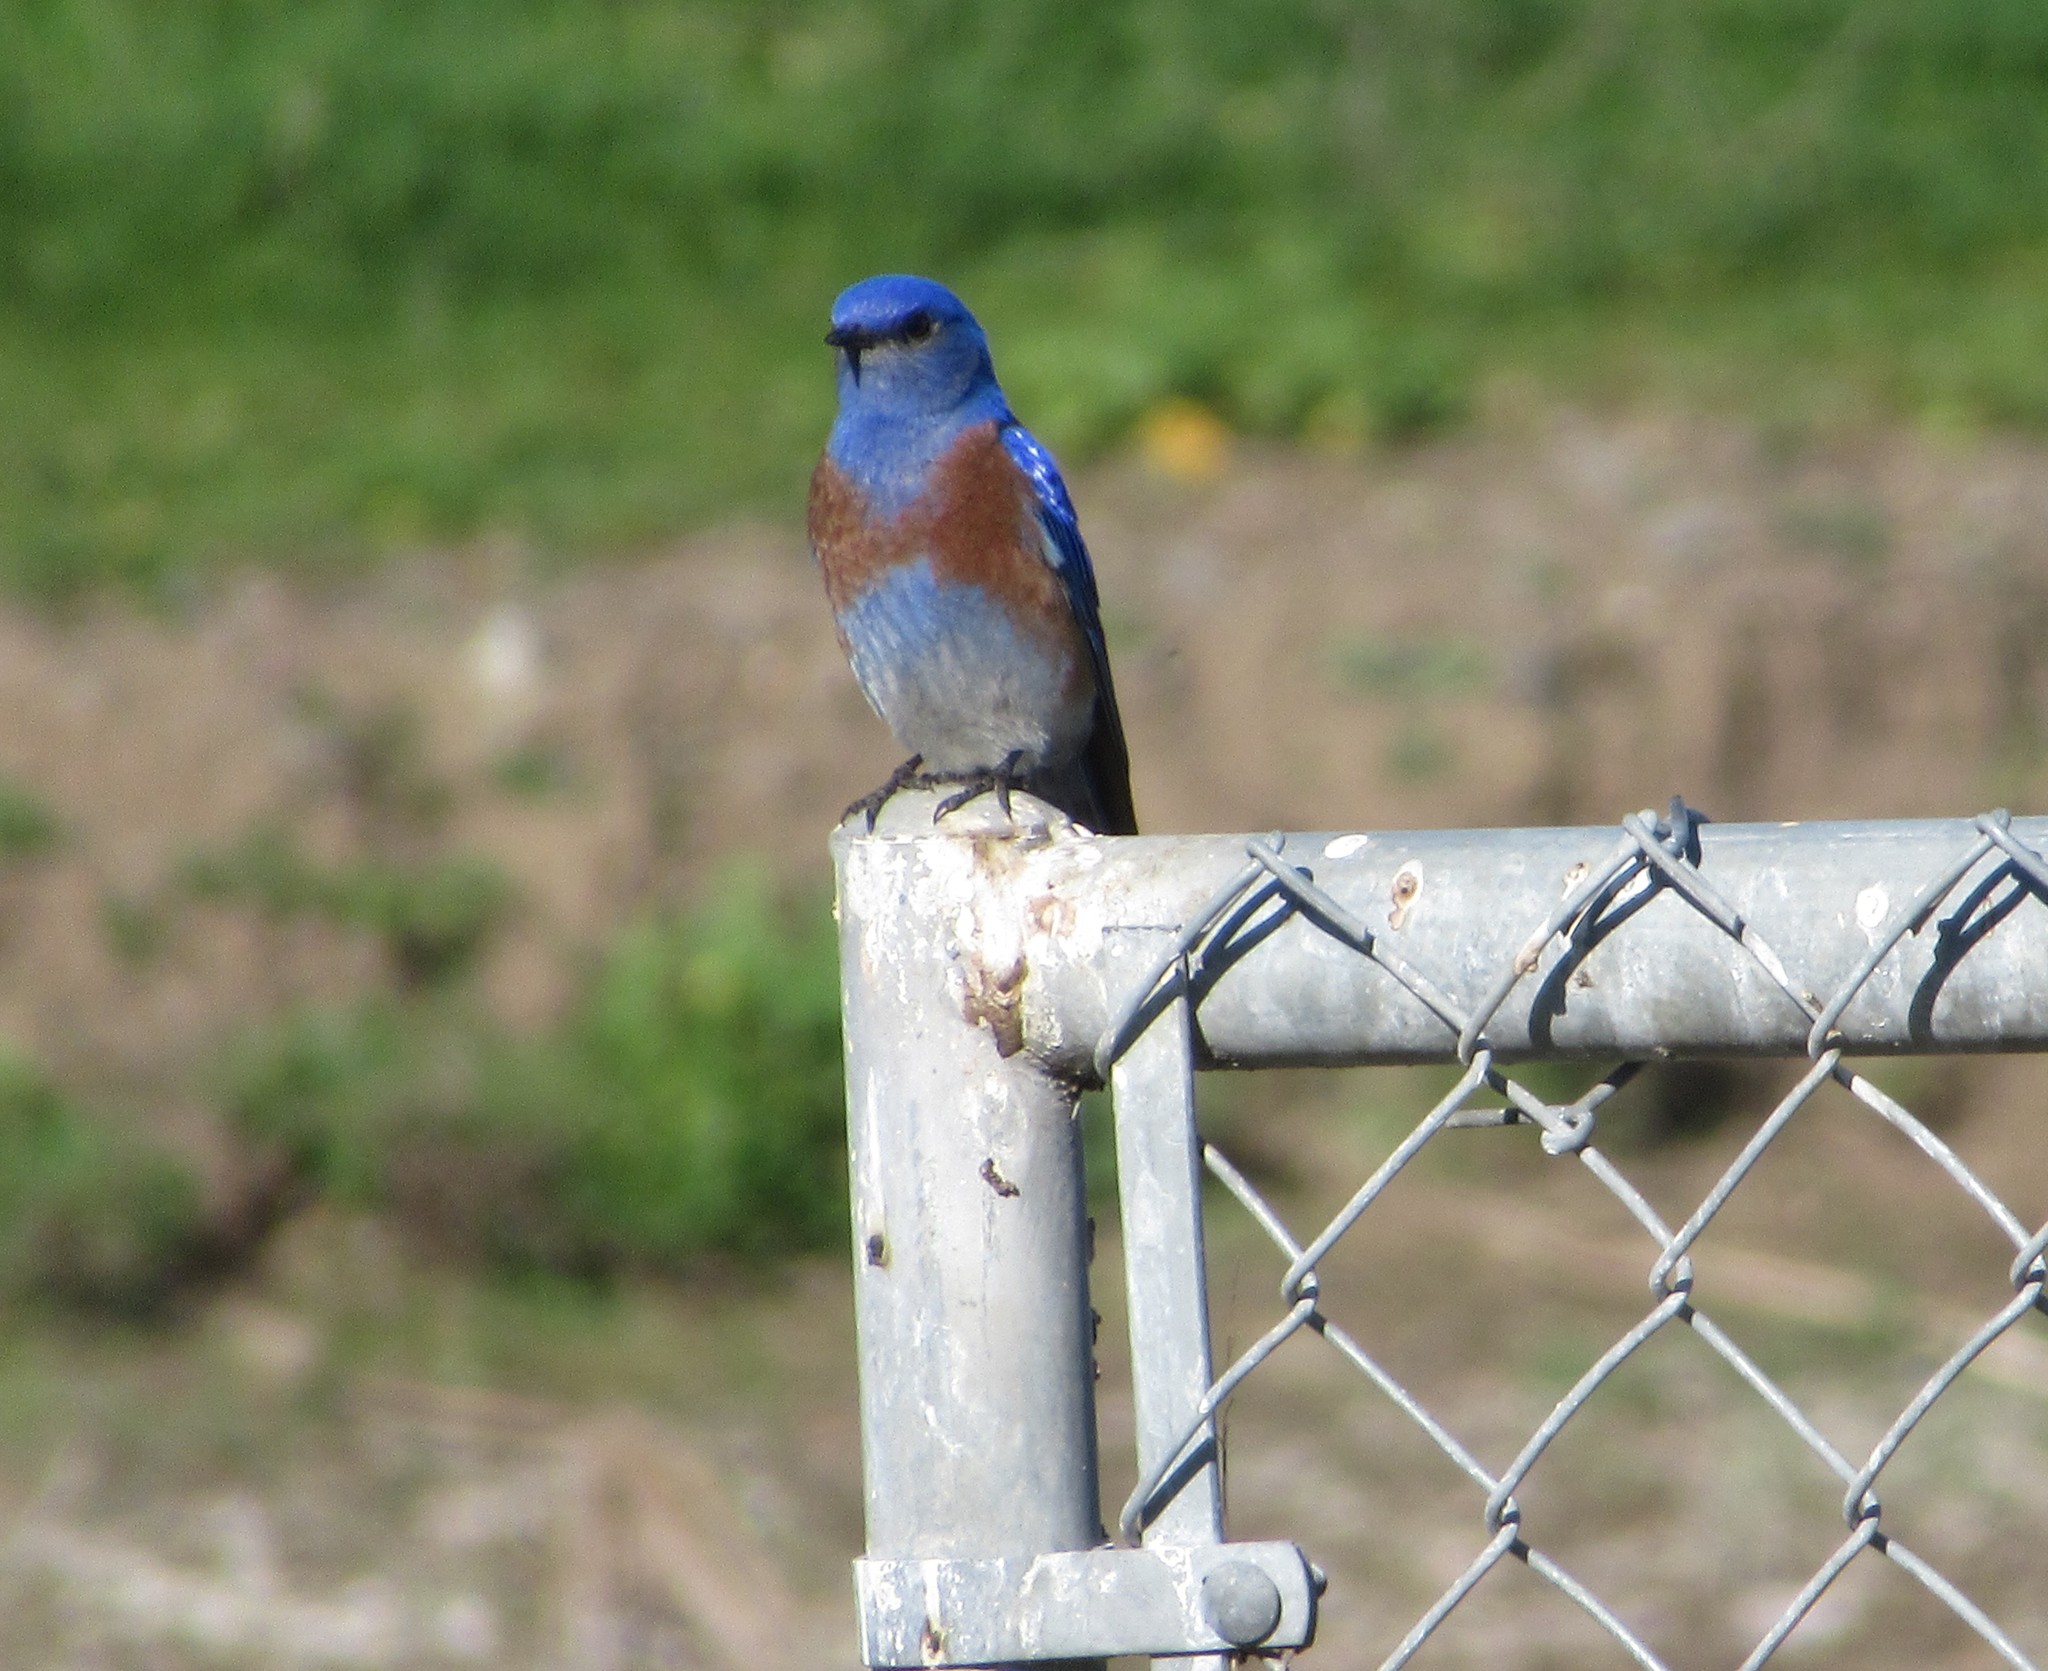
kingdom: Animalia
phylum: Chordata
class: Aves
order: Passeriformes
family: Turdidae
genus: Sialia
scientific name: Sialia mexicana
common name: Western bluebird
